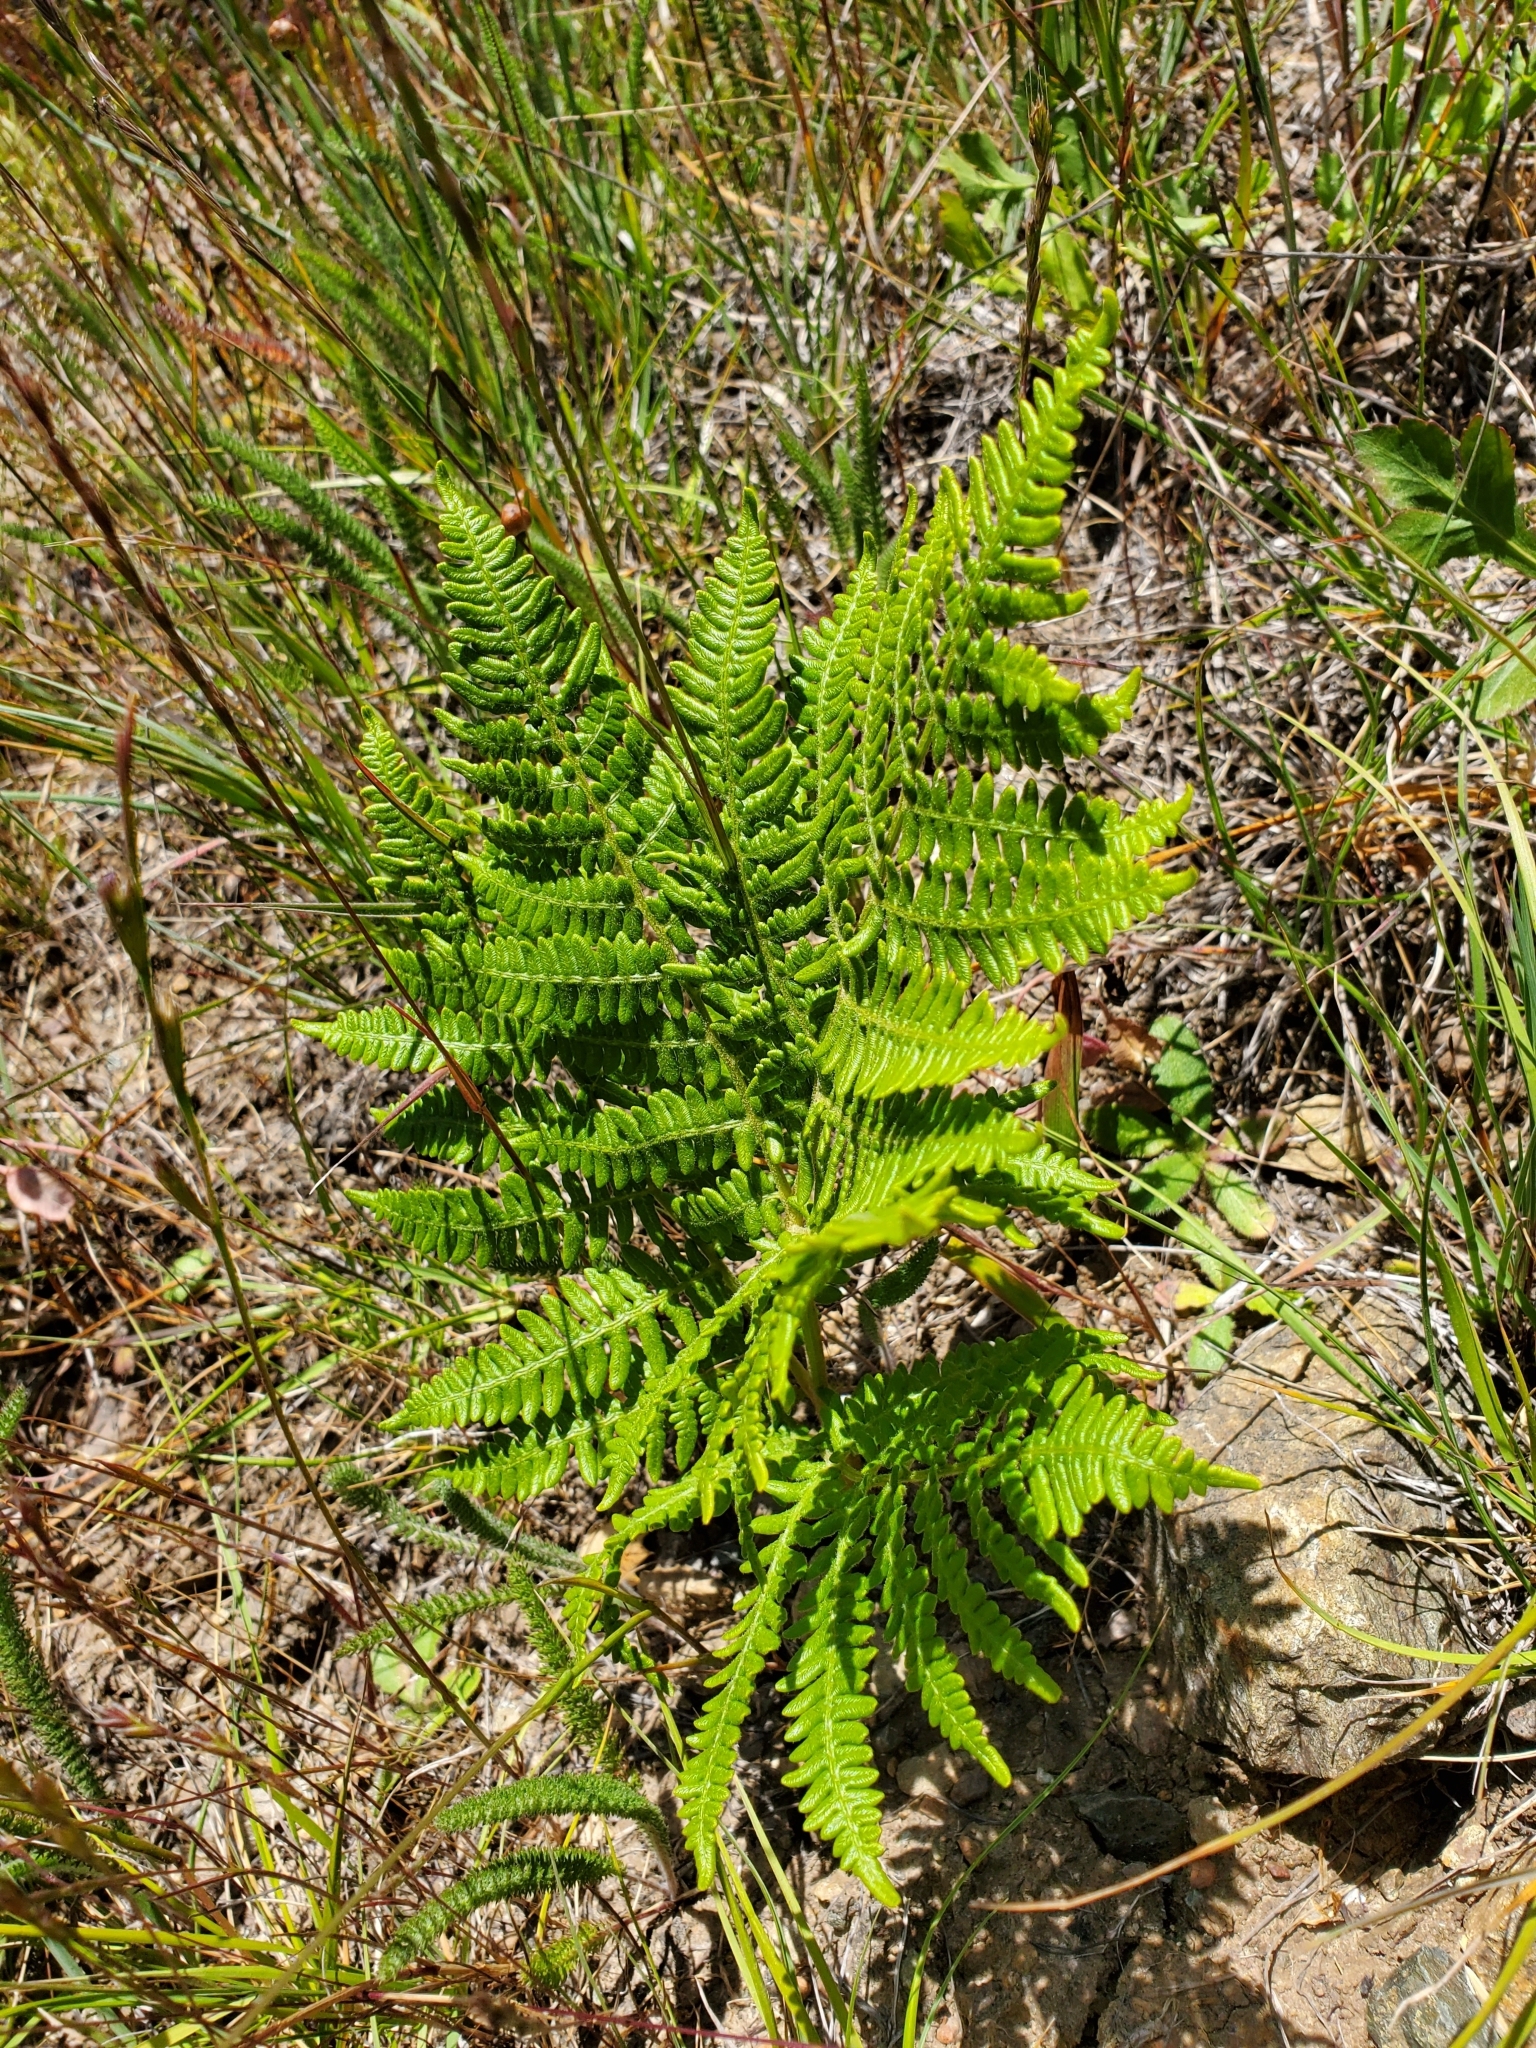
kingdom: Plantae
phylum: Tracheophyta
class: Polypodiopsida
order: Polypodiales
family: Dennstaedtiaceae
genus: Pteridium
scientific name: Pteridium aquilinum
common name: Bracken
